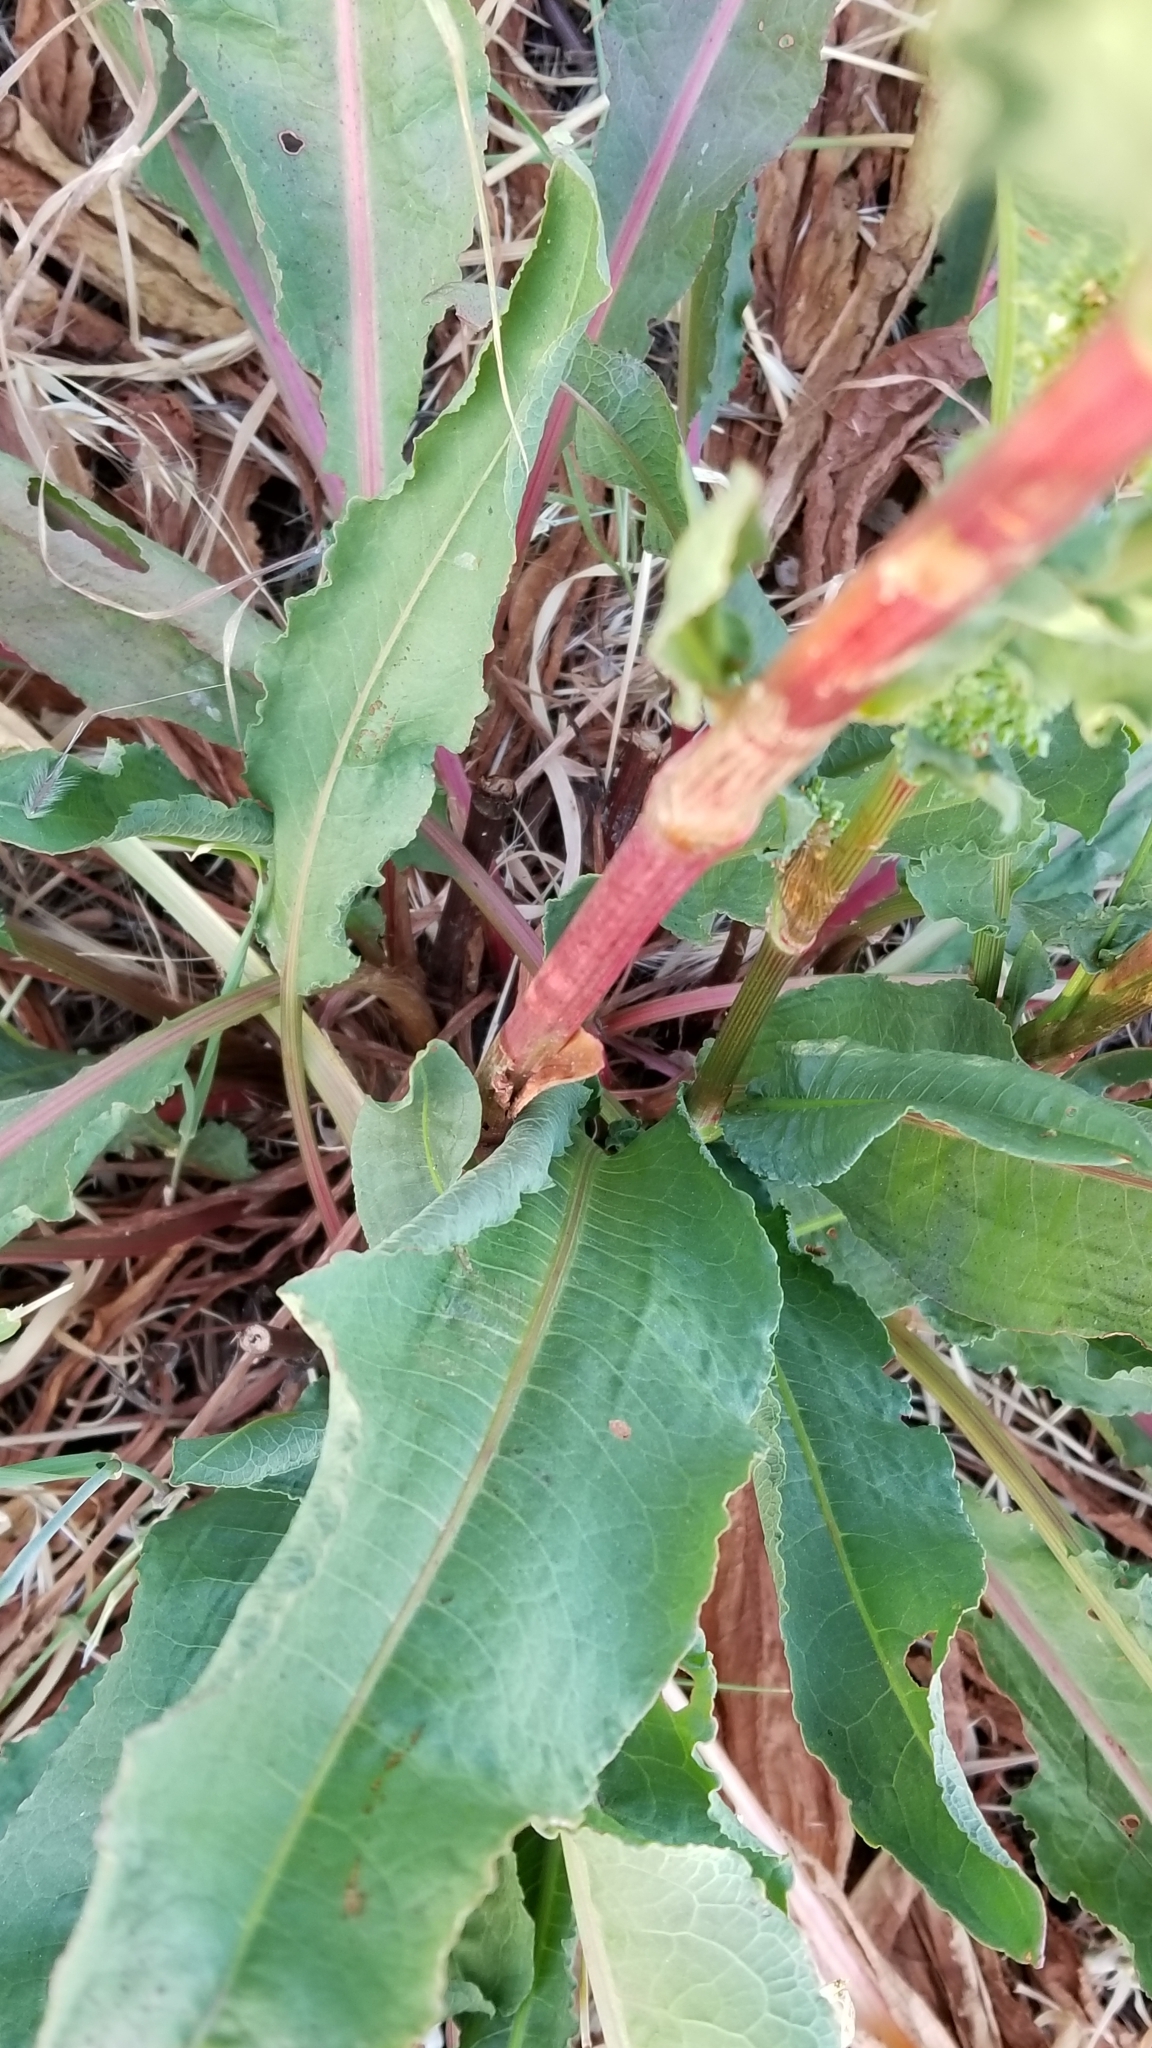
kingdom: Plantae
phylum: Tracheophyta
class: Magnoliopsida
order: Caryophyllales
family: Polygonaceae
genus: Rumex
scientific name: Rumex crispus
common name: Curled dock
